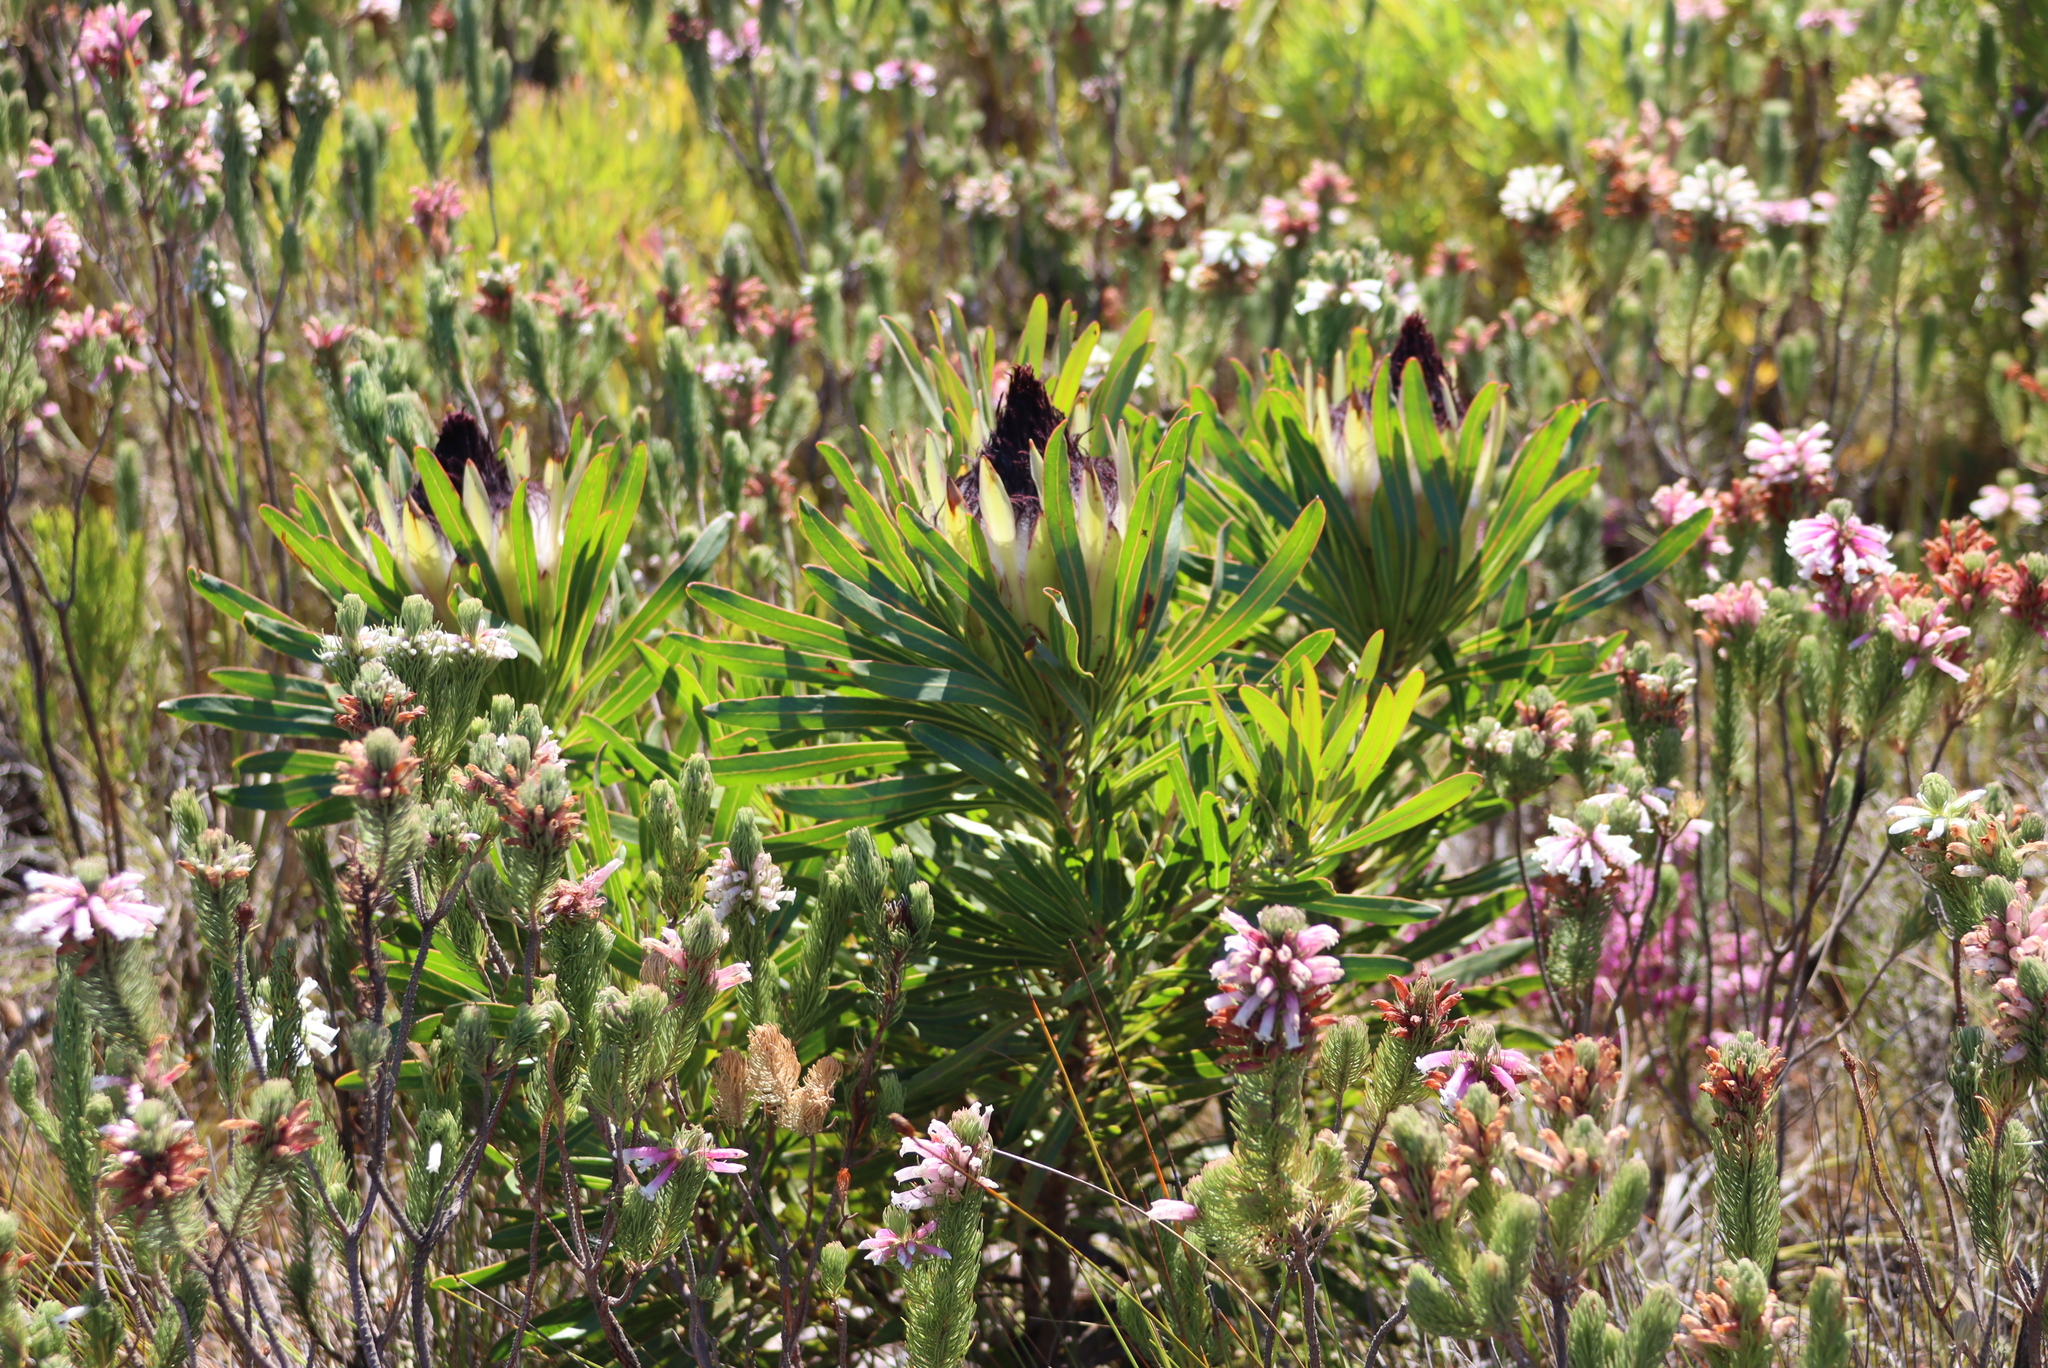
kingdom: Plantae
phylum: Tracheophyta
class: Magnoliopsida
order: Proteales
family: Proteaceae
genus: Protea
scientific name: Protea longifolia
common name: Long-leaf sugarbush
